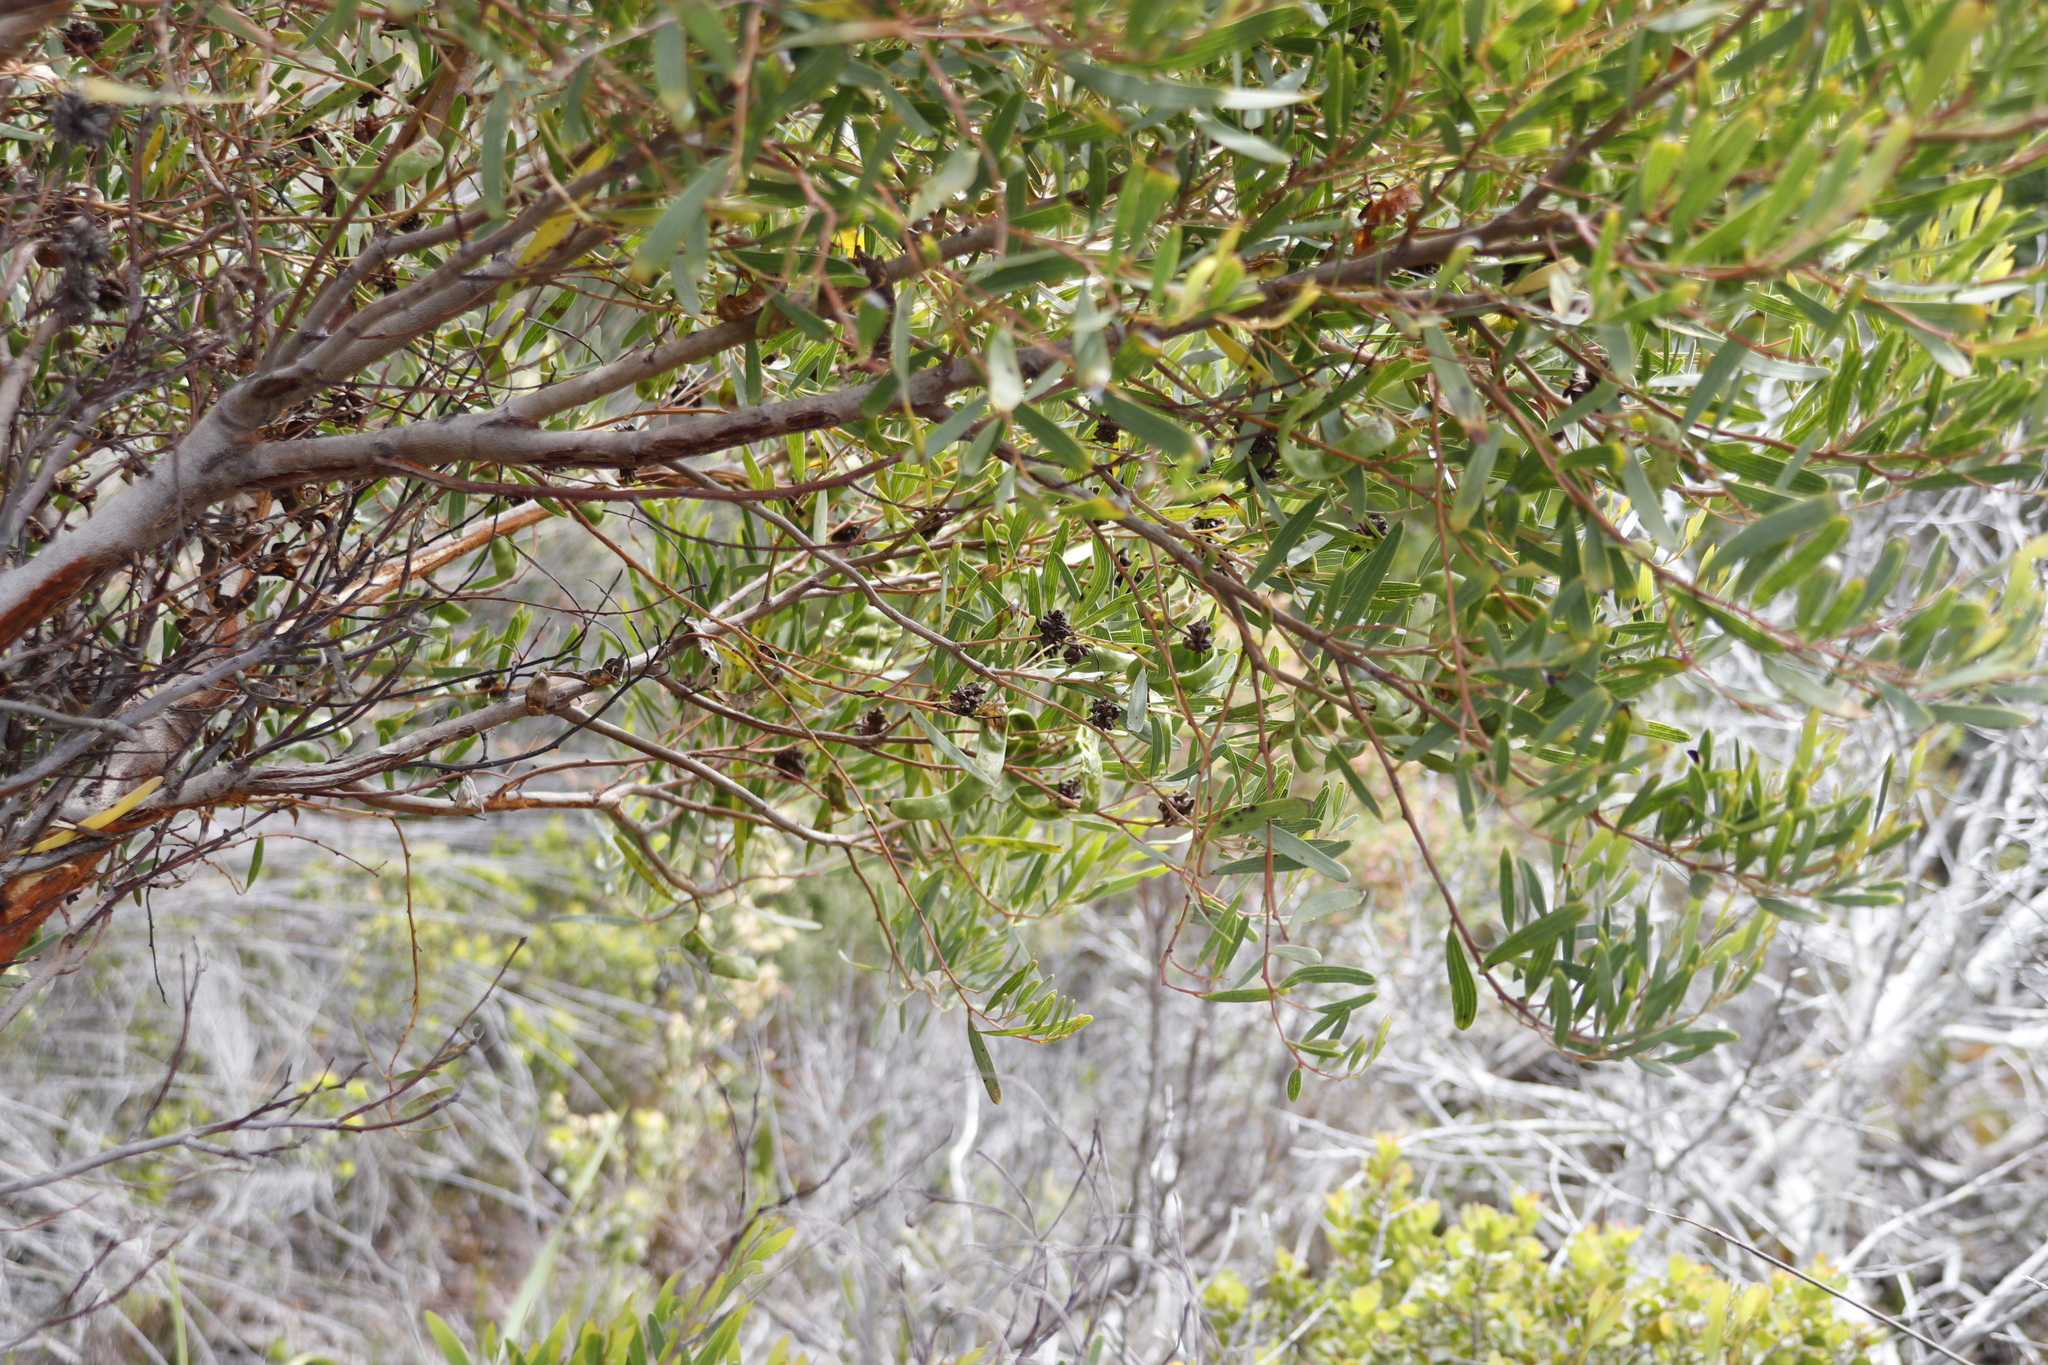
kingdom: Plantae
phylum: Tracheophyta
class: Magnoliopsida
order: Fabales
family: Fabaceae
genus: Acacia
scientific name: Acacia cyclops
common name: Coastal wattle
